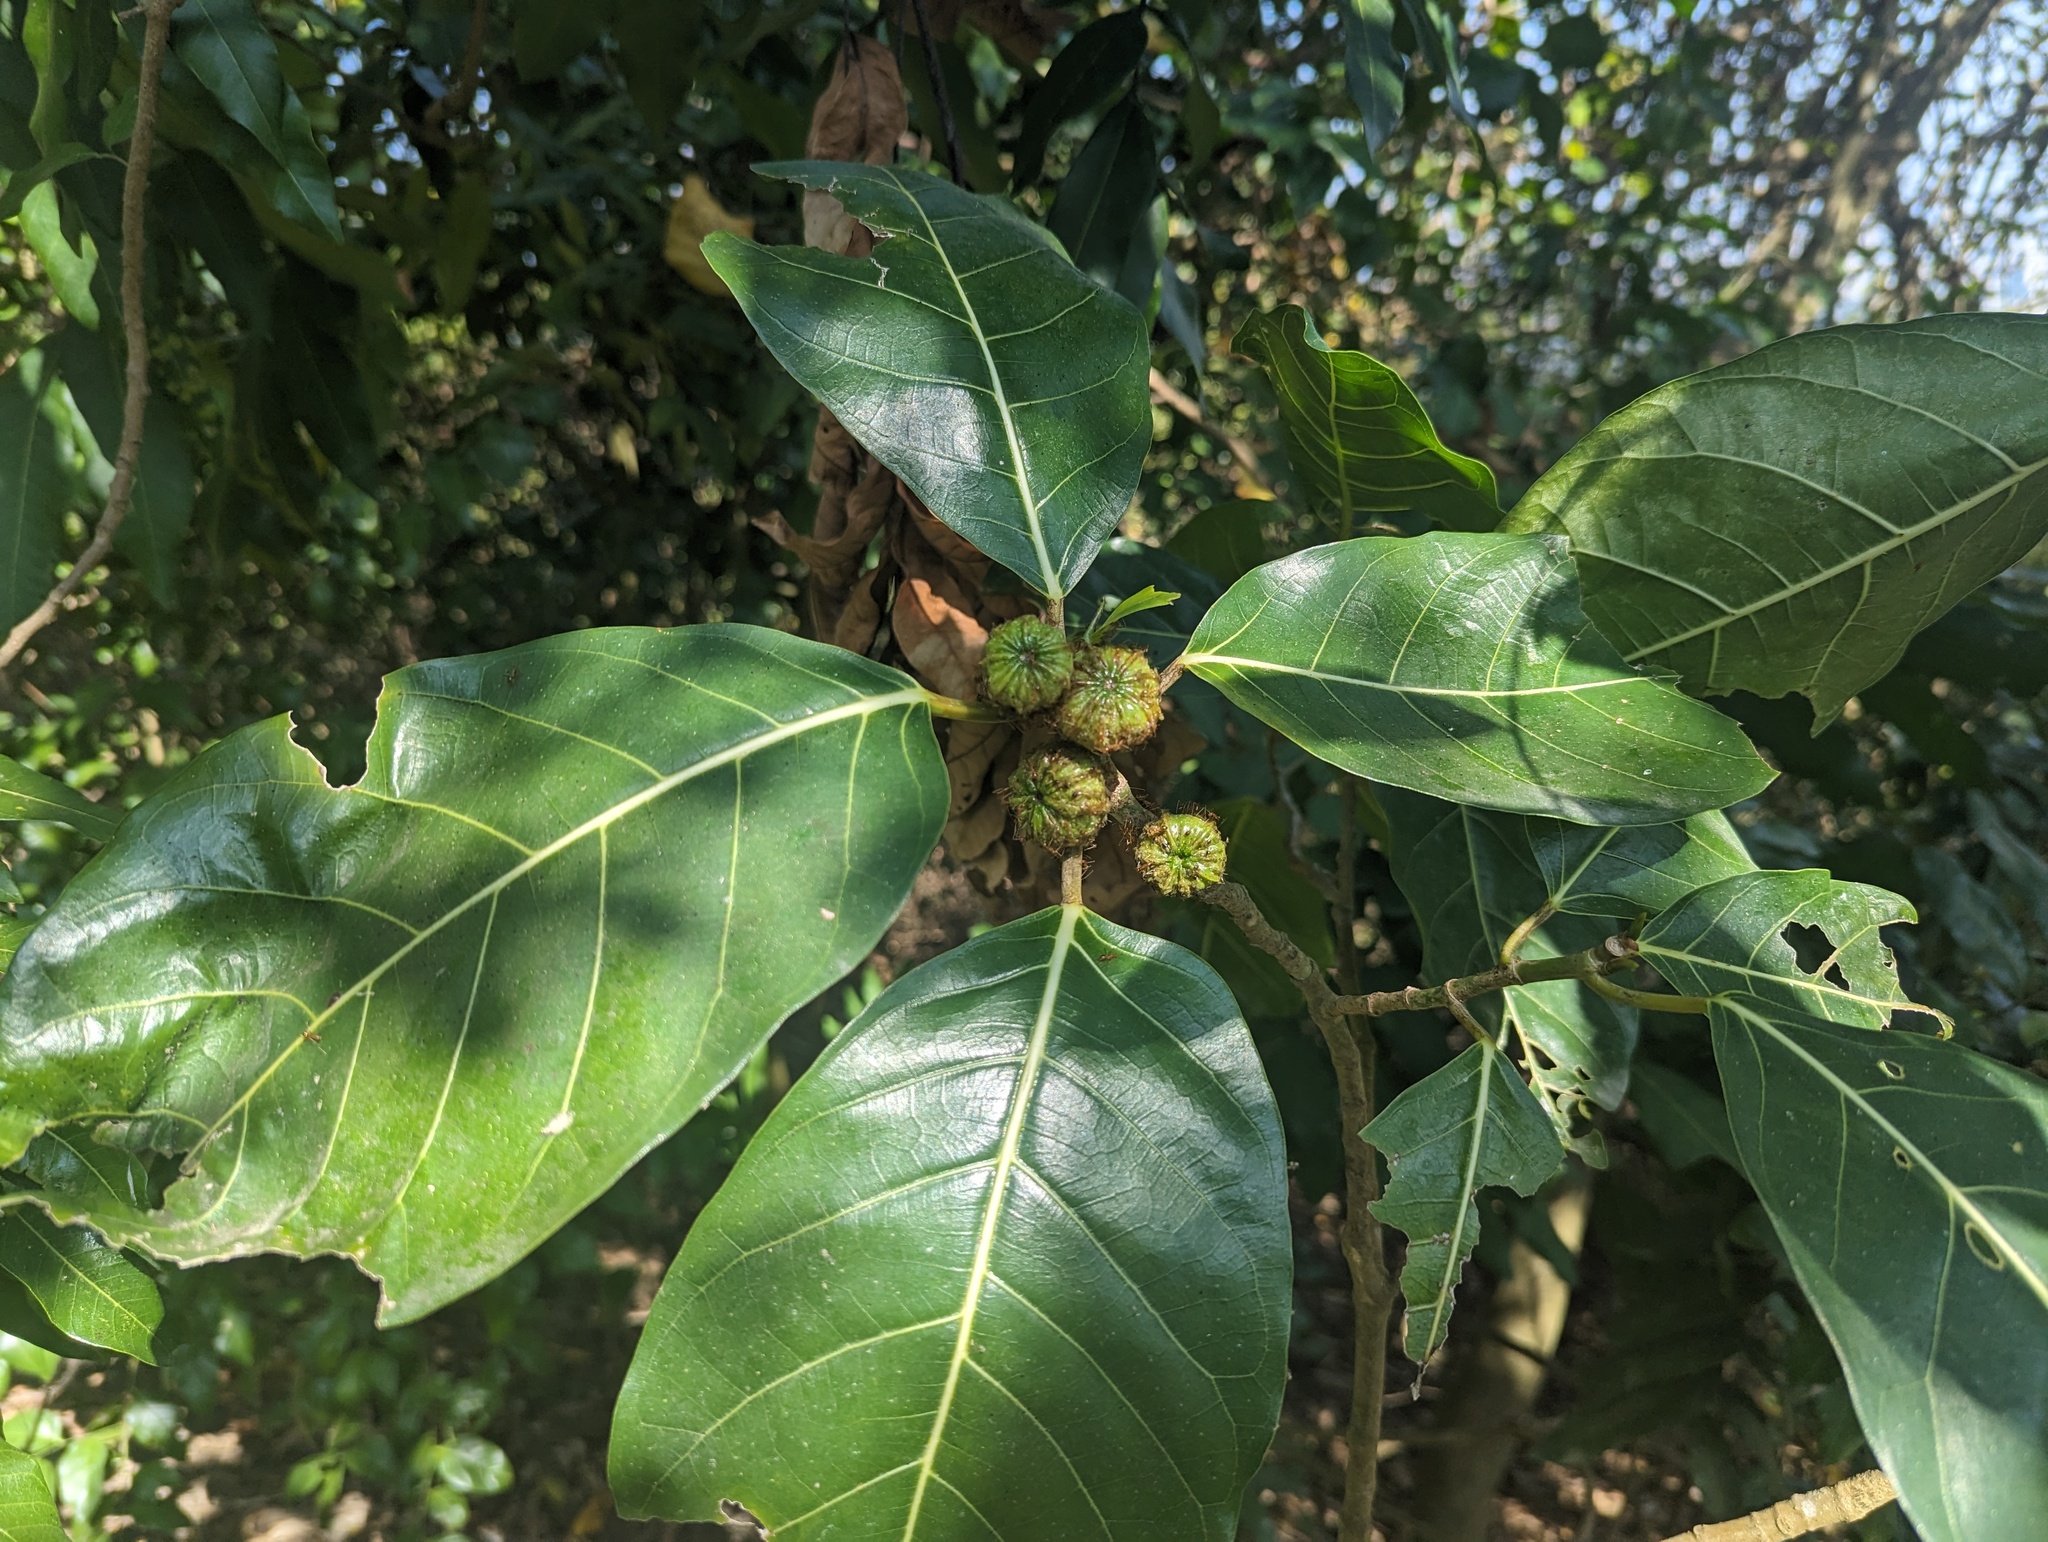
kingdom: Plantae
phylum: Tracheophyta
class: Magnoliopsida
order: Rosales
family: Moraceae
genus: Ficus
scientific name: Ficus septica
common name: Septic fig
